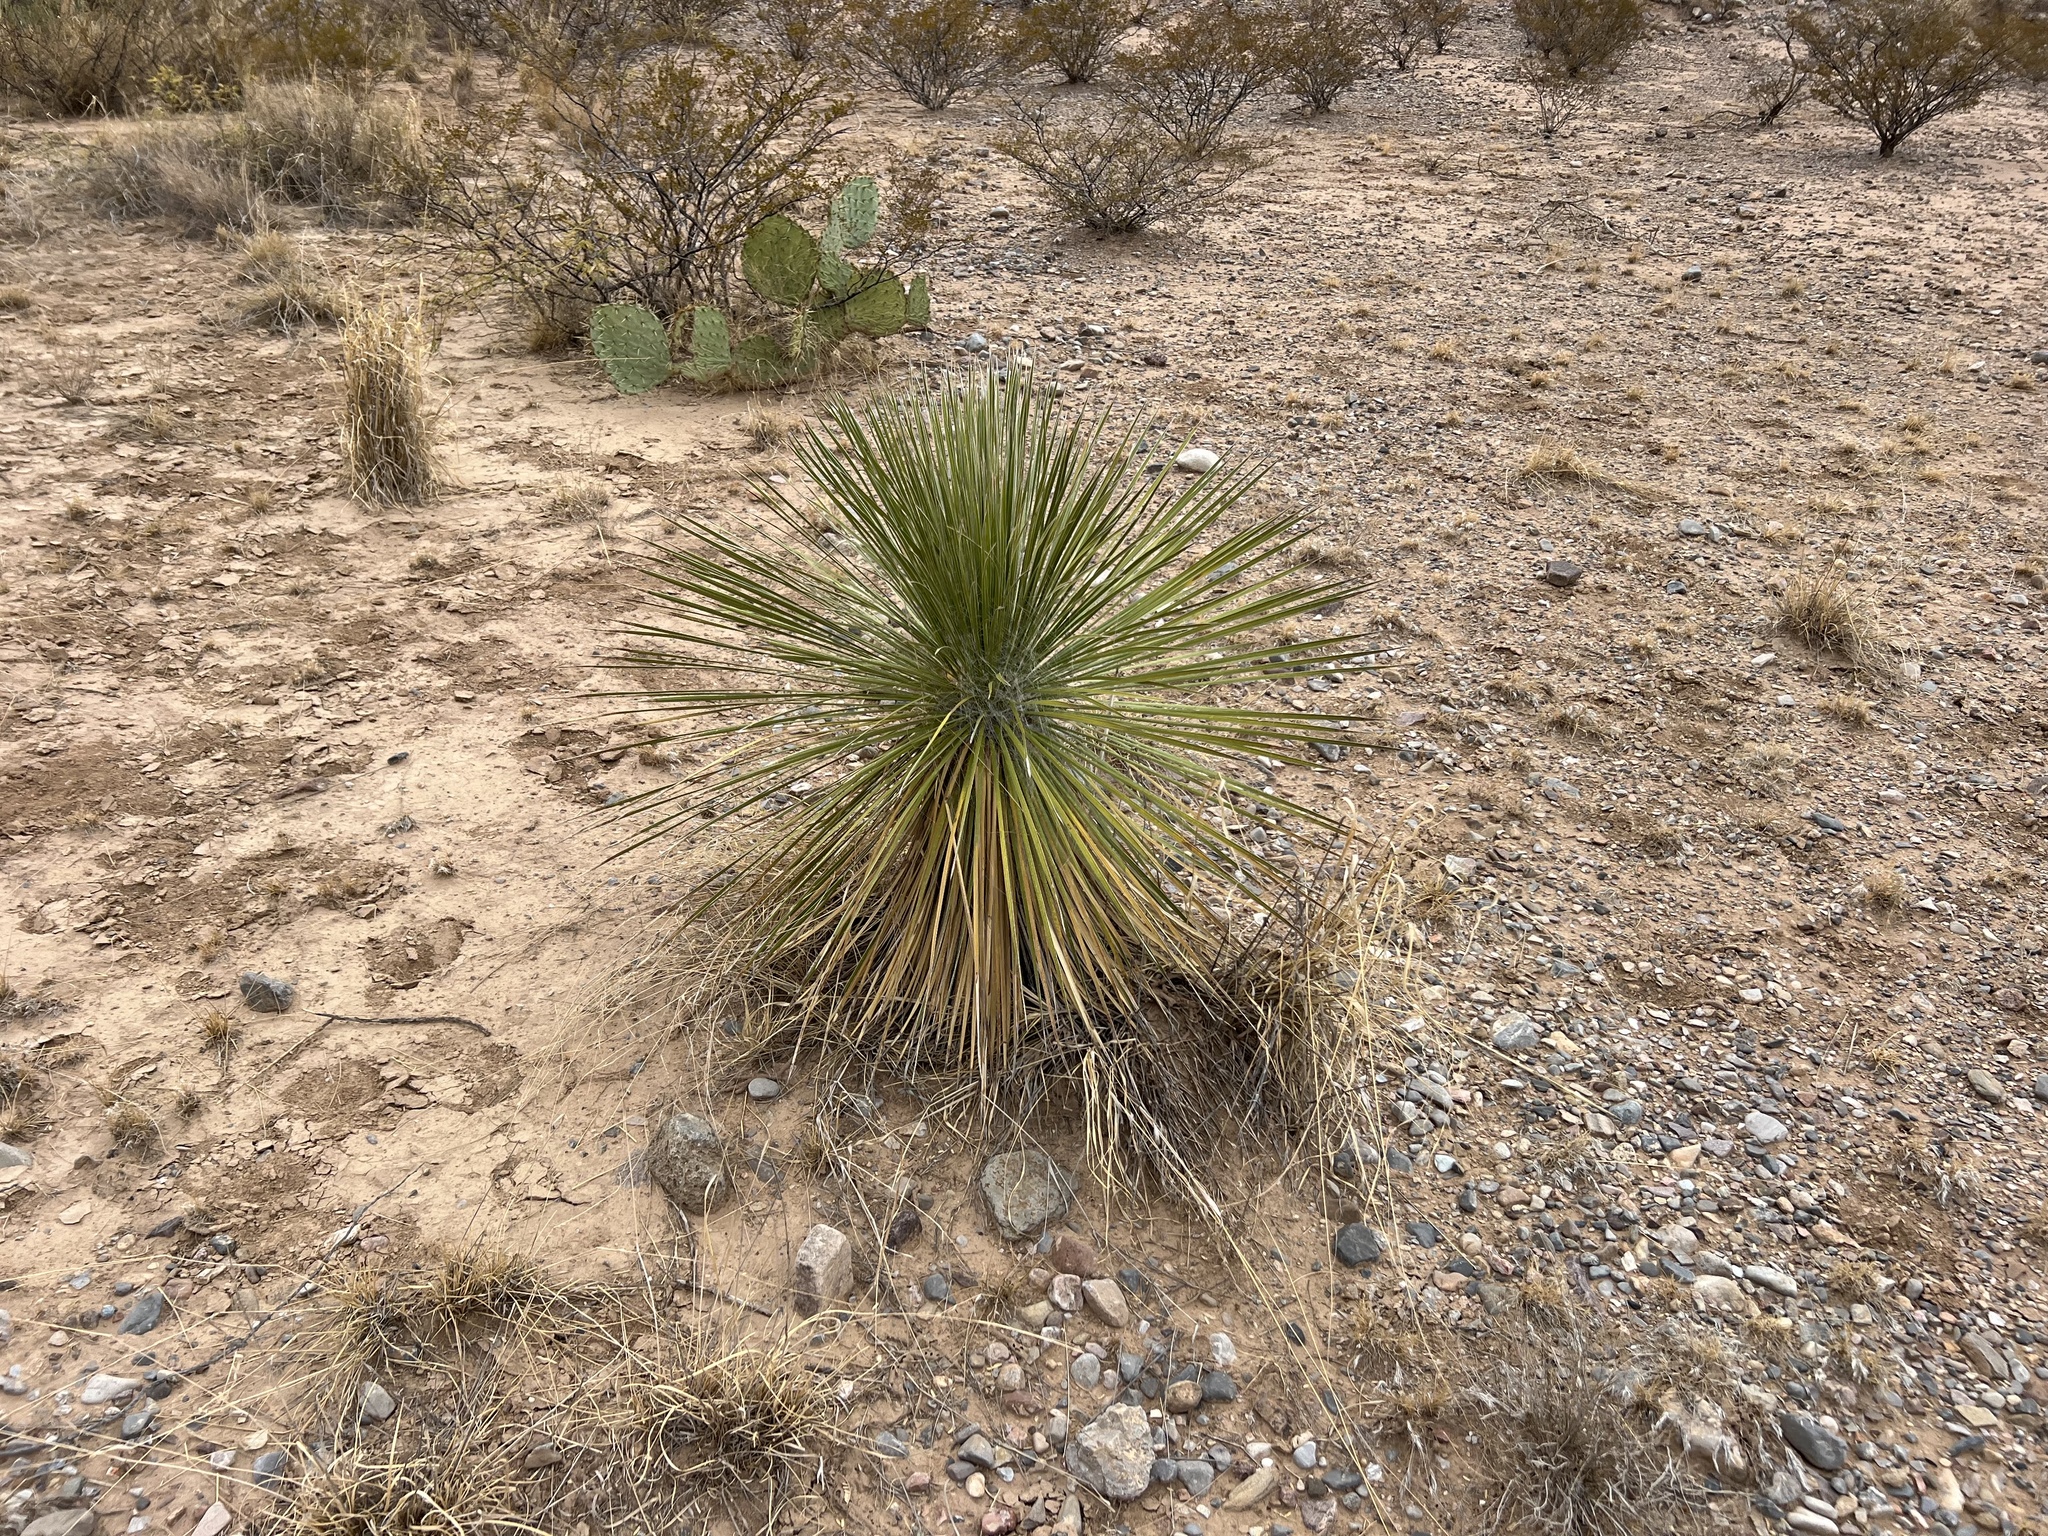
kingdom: Plantae
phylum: Tracheophyta
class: Liliopsida
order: Asparagales
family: Asparagaceae
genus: Yucca
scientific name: Yucca elata
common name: Palmella
